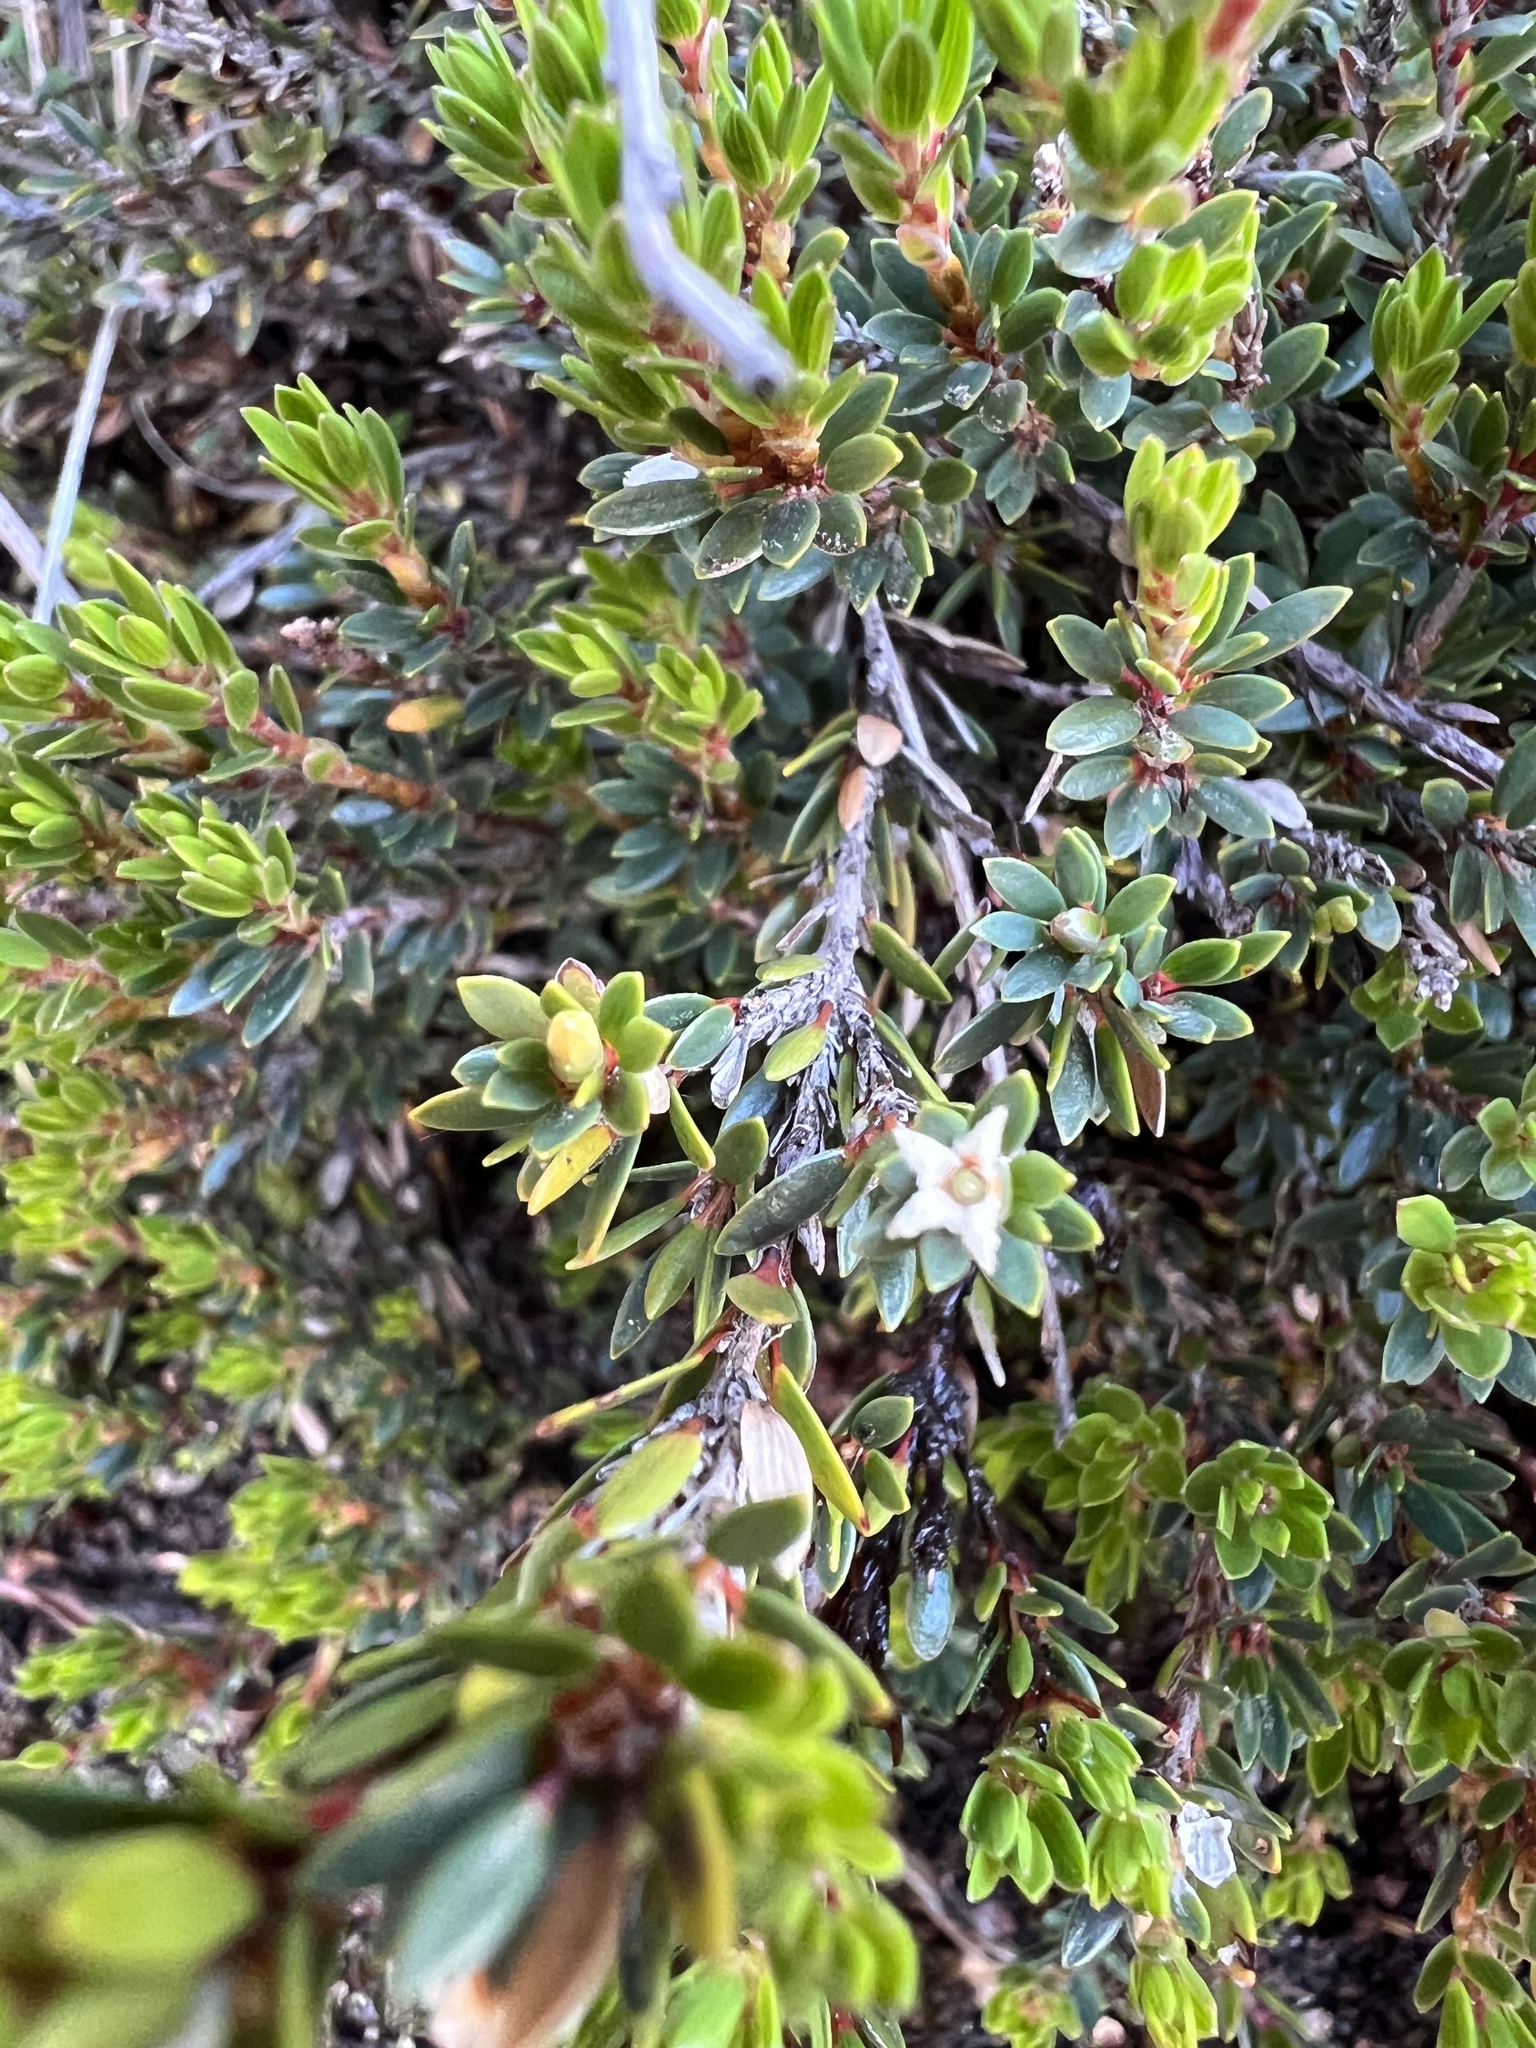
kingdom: Plantae
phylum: Tracheophyta
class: Magnoliopsida
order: Ericales
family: Ericaceae
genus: Pentachondra
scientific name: Pentachondra pumila
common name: Carpet-heath
